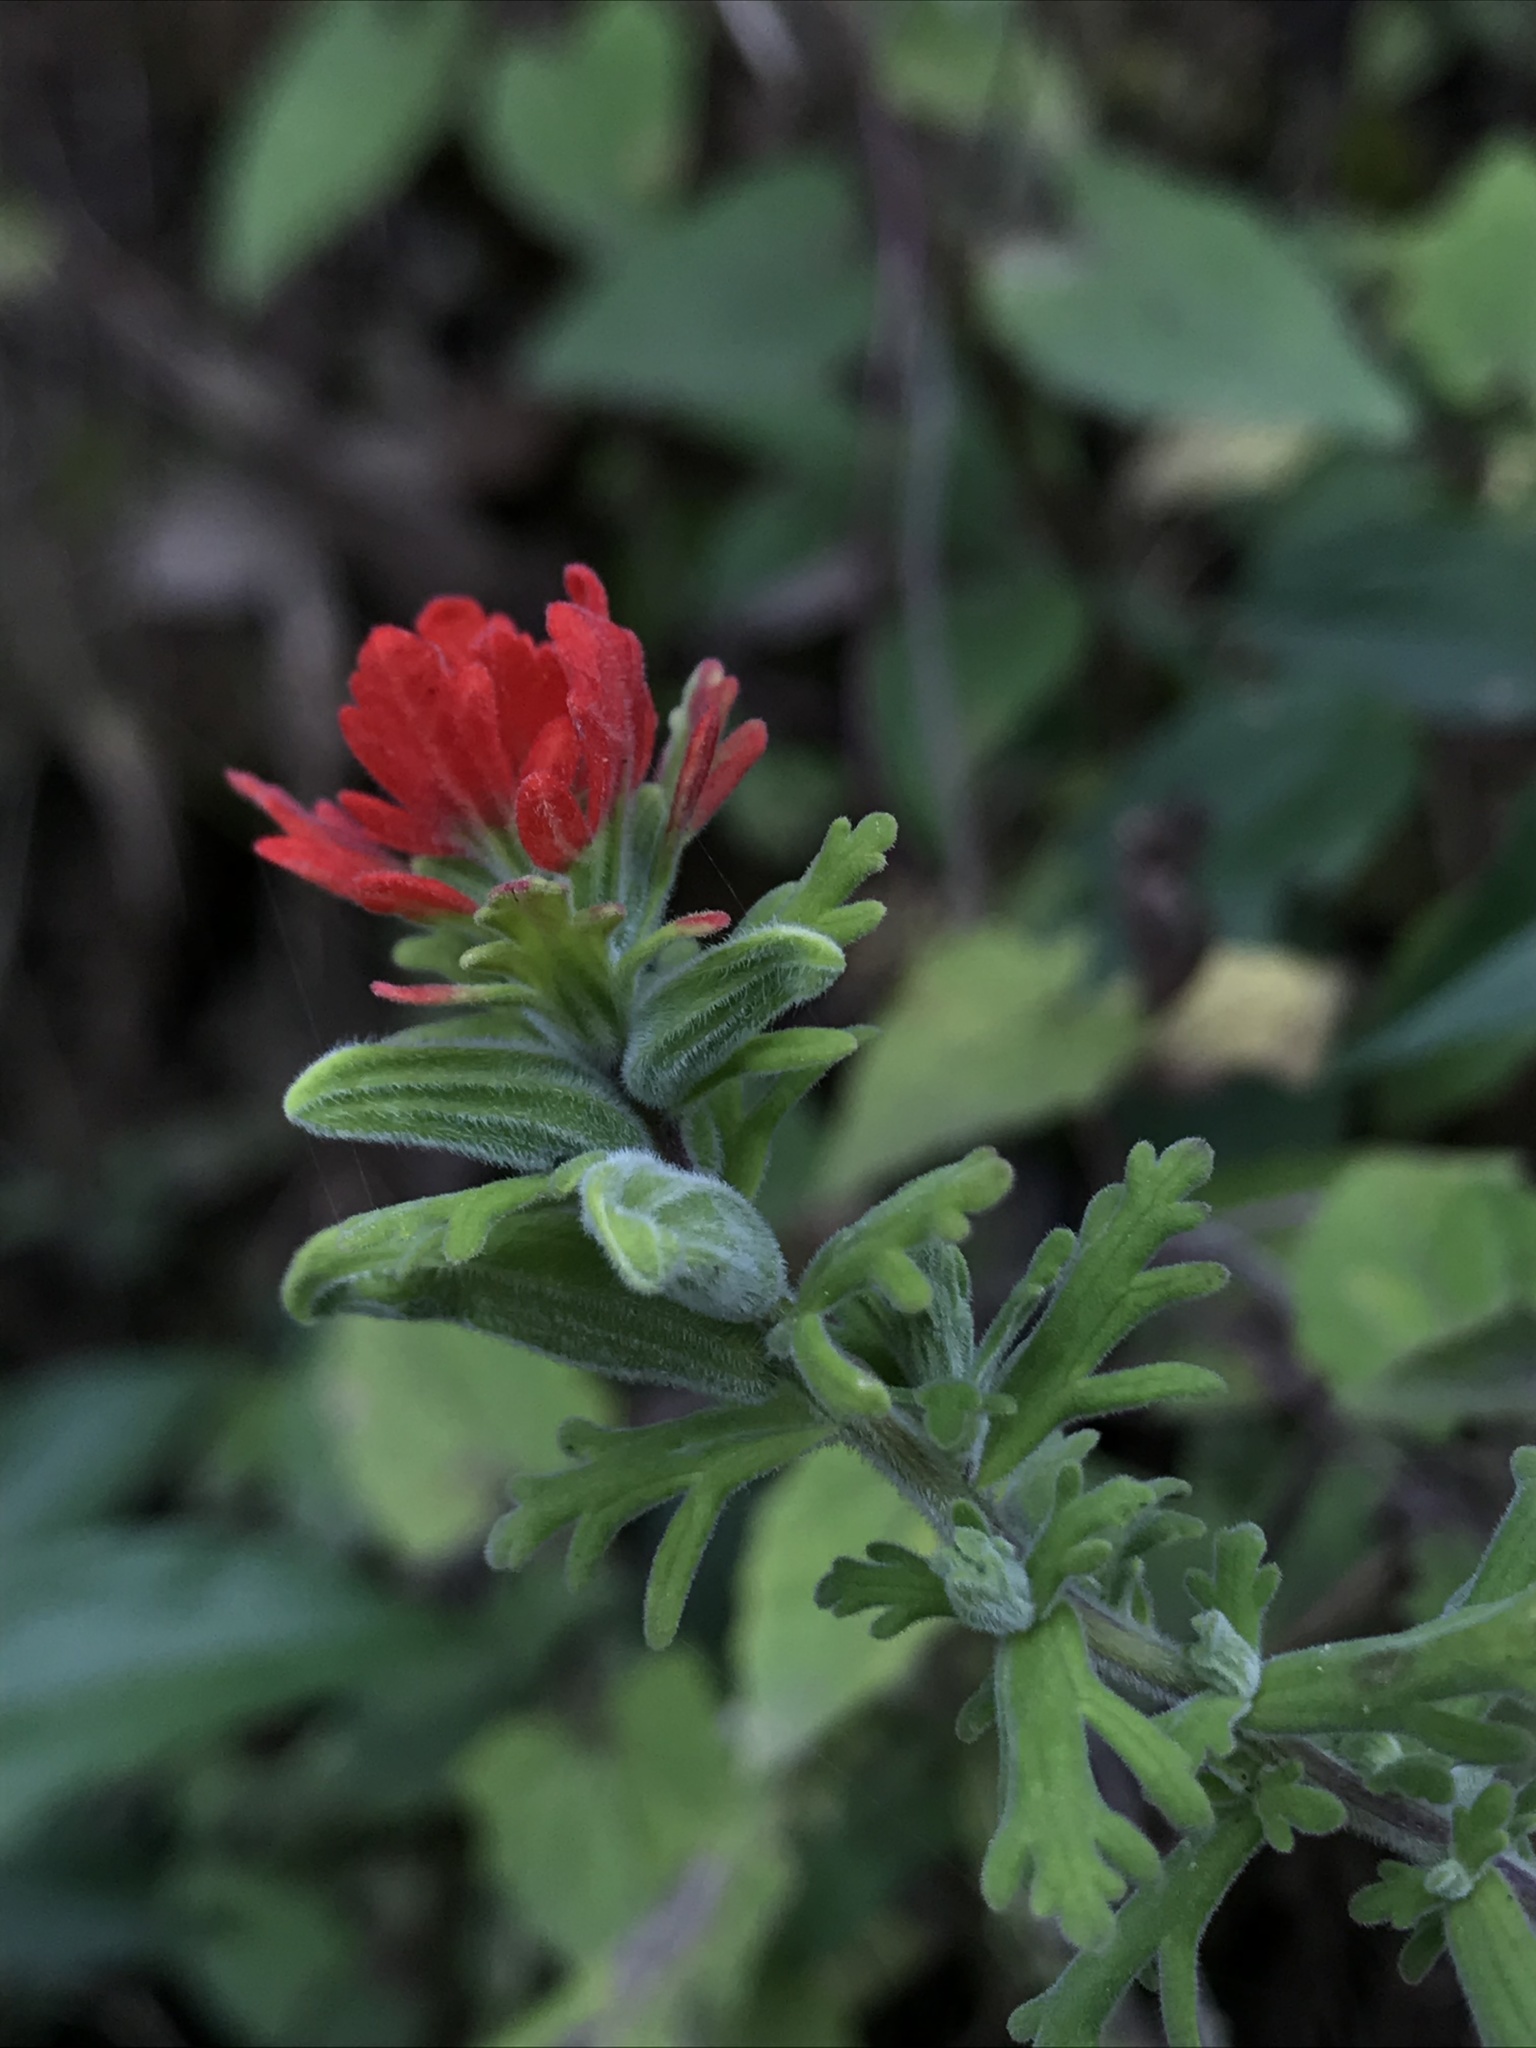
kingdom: Plantae
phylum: Tracheophyta
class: Magnoliopsida
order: Lamiales
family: Orobanchaceae
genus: Castilleja
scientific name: Castilleja fissifolia
